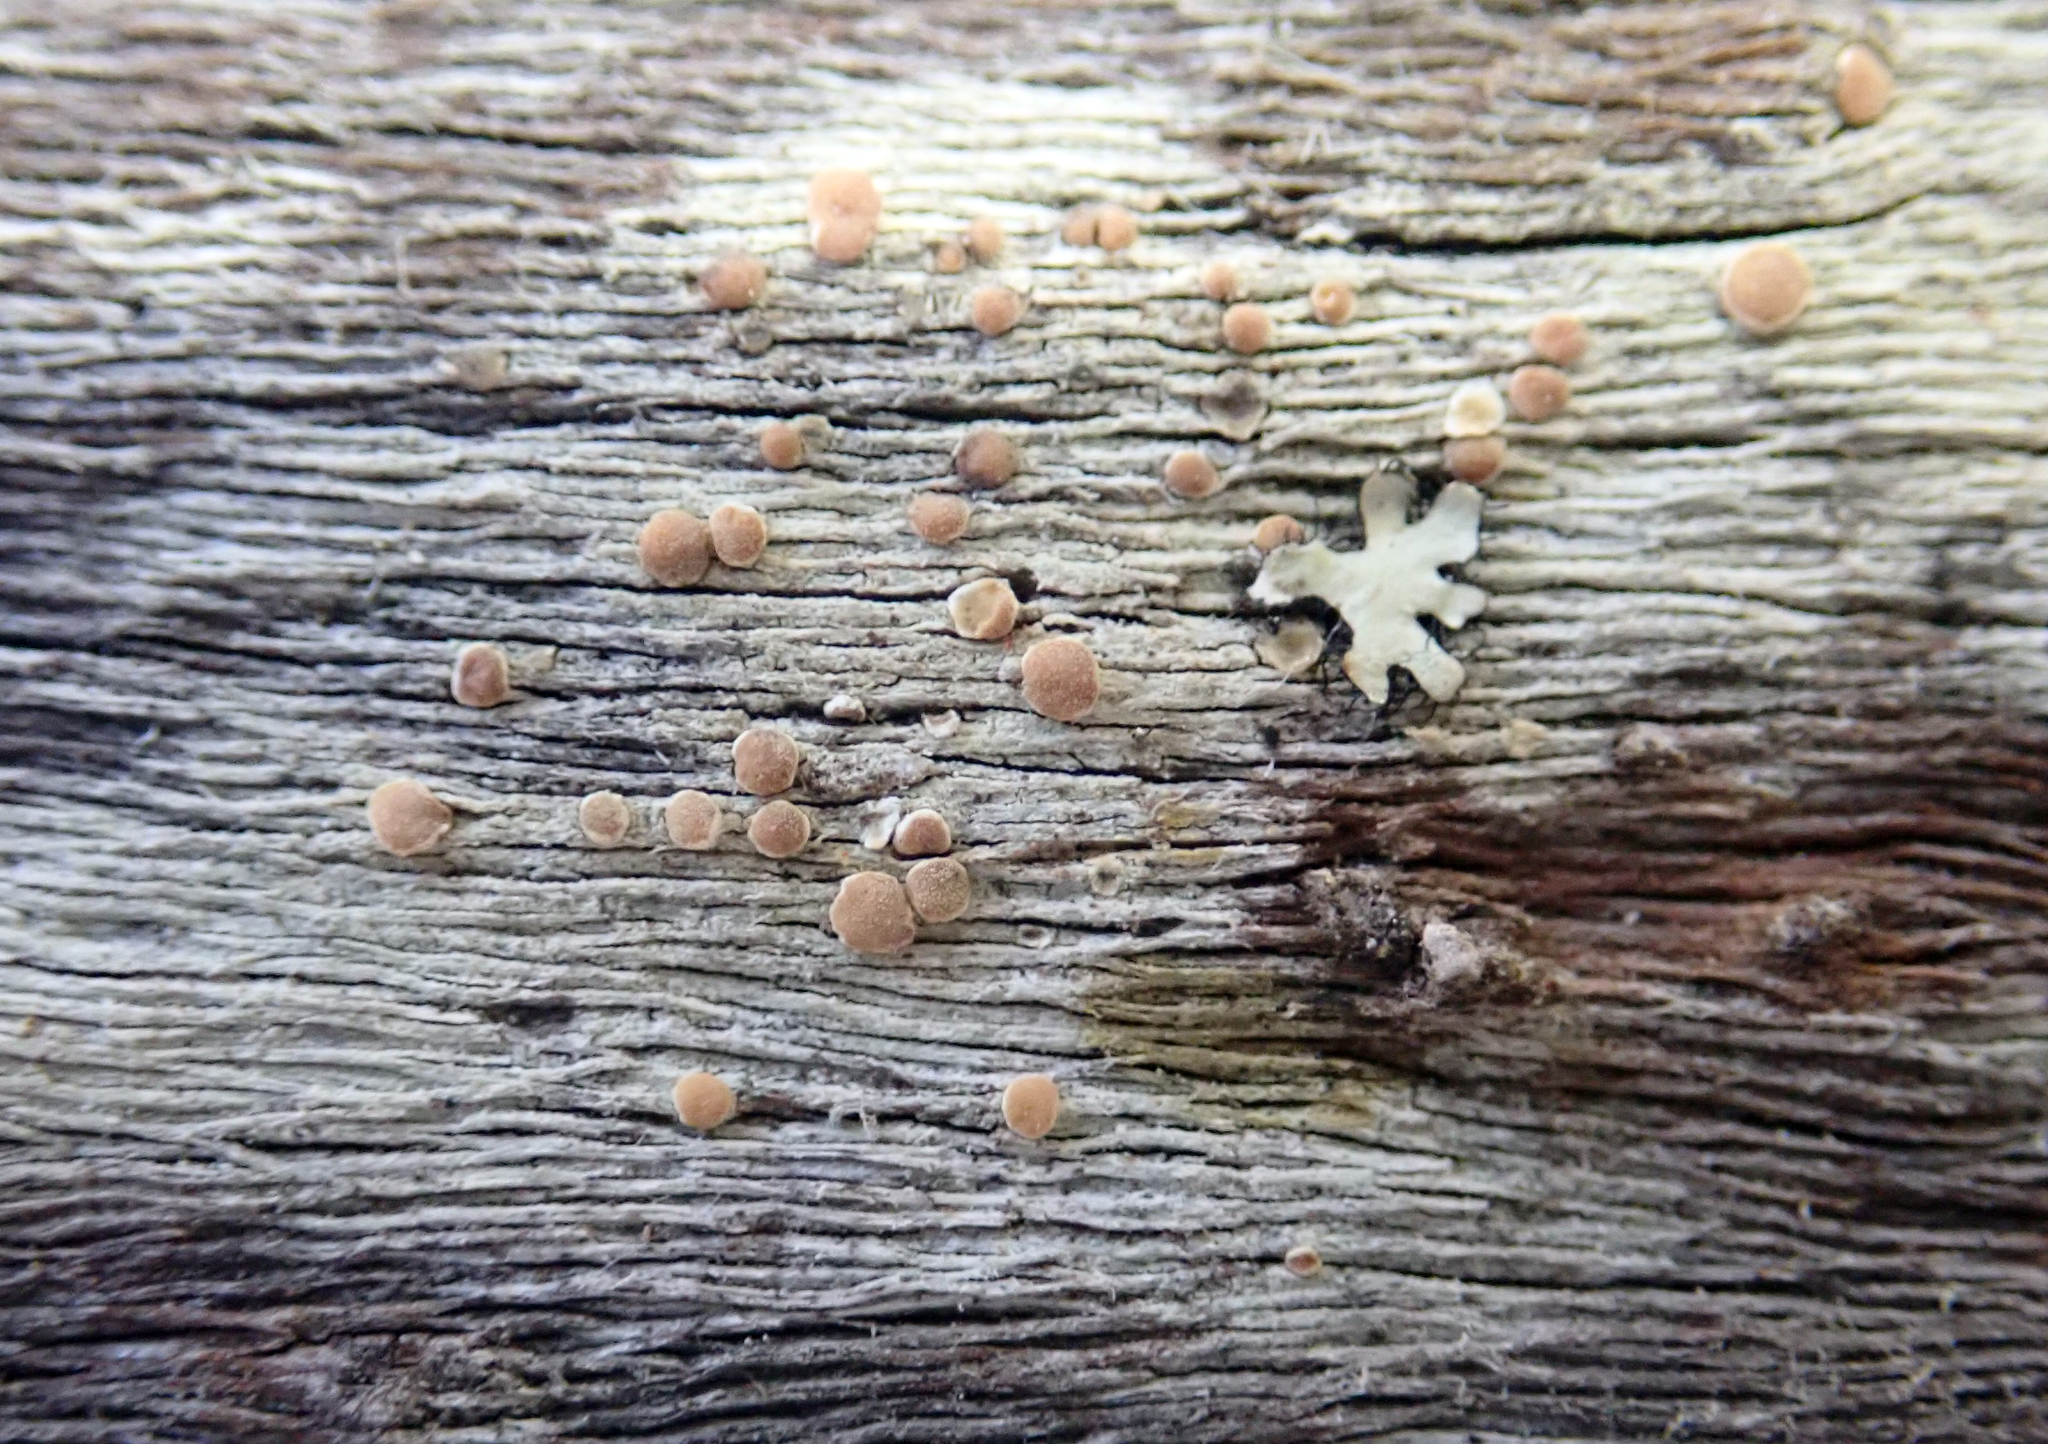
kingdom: Fungi
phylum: Ascomycota
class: Lecanoromycetes
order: Lecanorales
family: Lecanoraceae
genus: Lecanora
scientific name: Lecanora flavopallida
